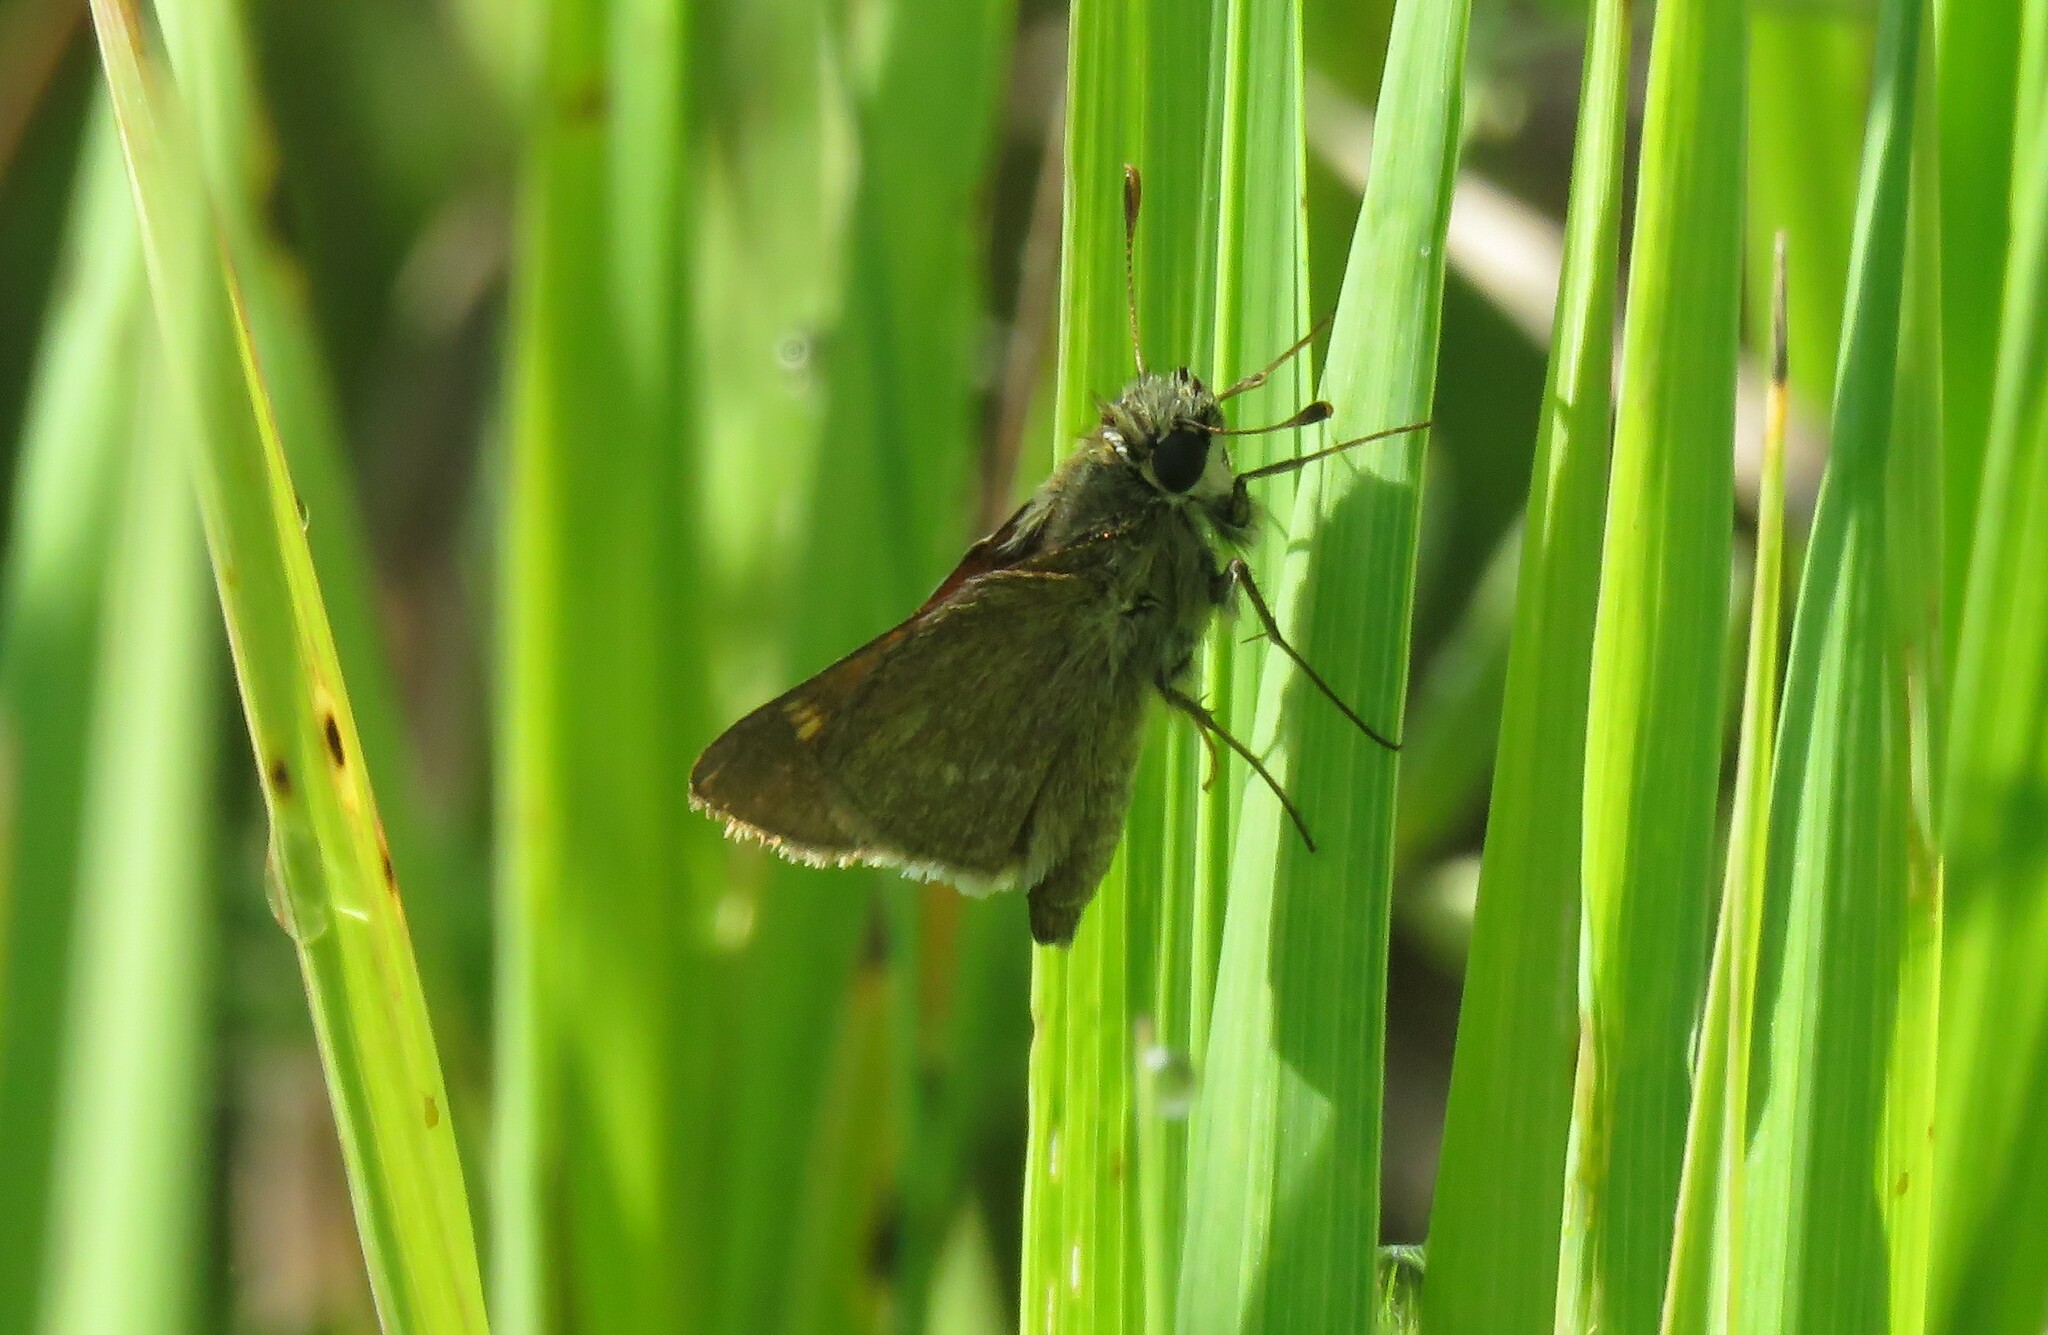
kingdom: Animalia
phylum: Arthropoda
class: Insecta
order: Lepidoptera
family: Hesperiidae
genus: Polites
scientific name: Polites themistocles
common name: Tawny-edged skipper
